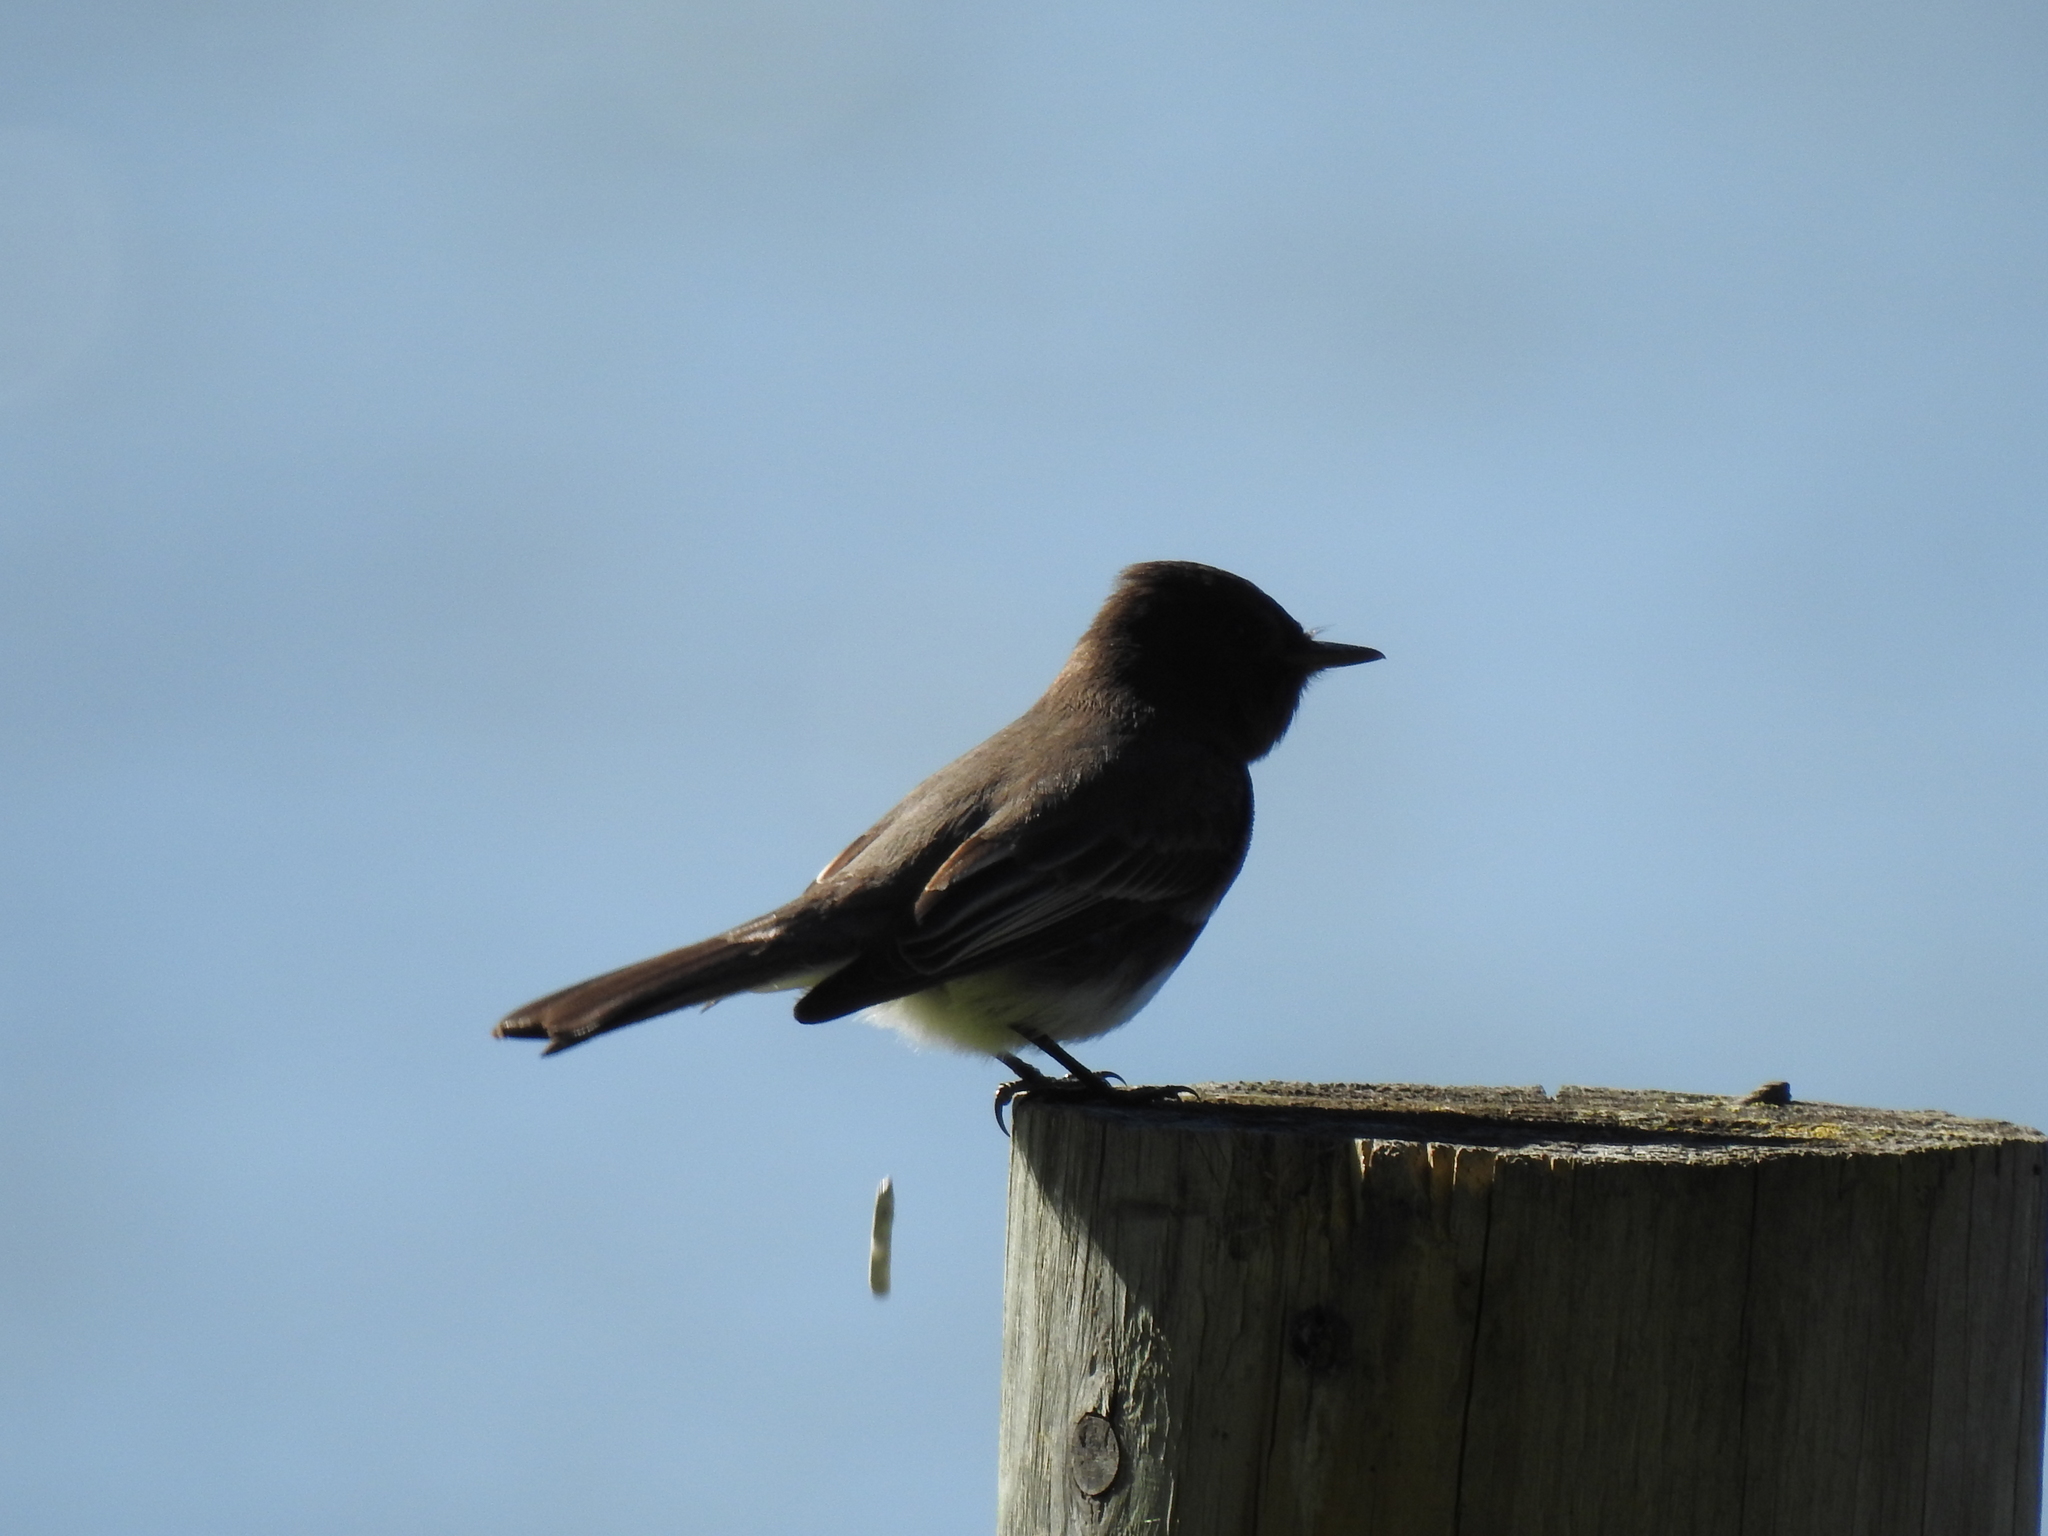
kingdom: Animalia
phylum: Chordata
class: Aves
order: Passeriformes
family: Tyrannidae
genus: Sayornis
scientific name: Sayornis nigricans
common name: Black phoebe
